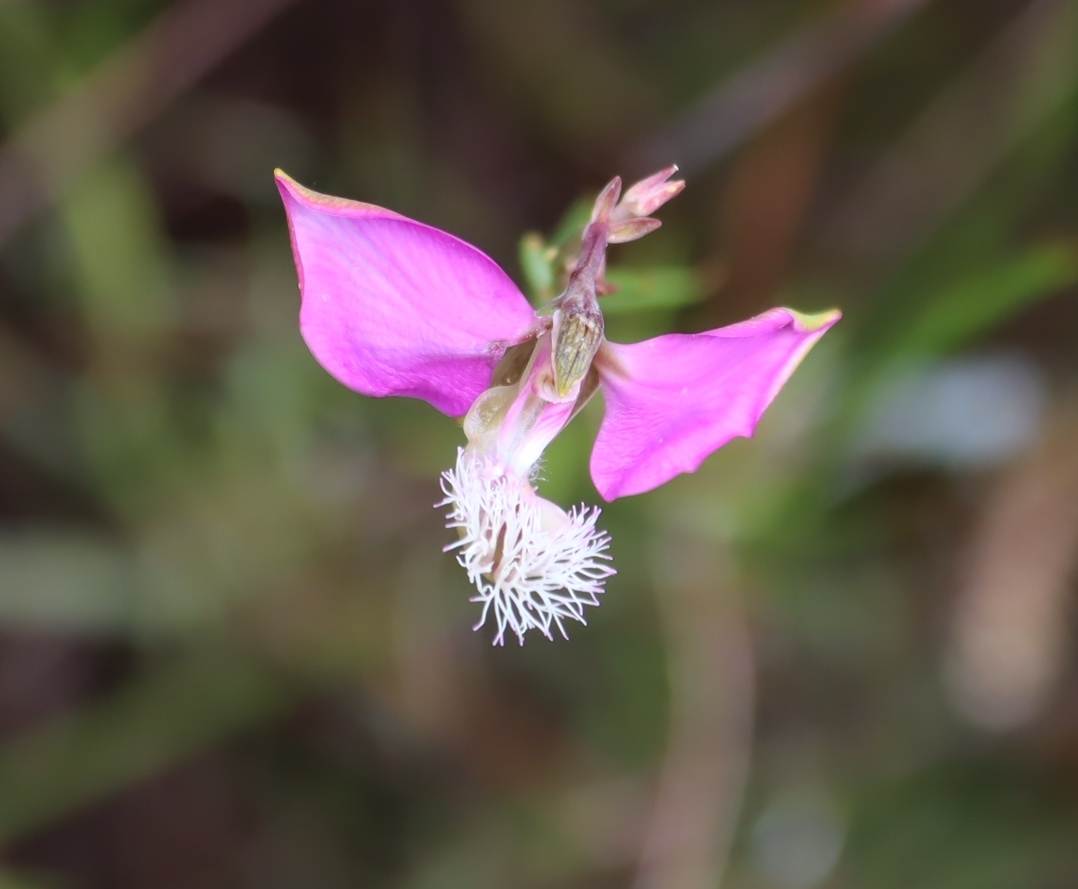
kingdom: Plantae
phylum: Tracheophyta
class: Magnoliopsida
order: Fabales
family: Polygalaceae
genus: Polygala
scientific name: Polygala bracteolata
